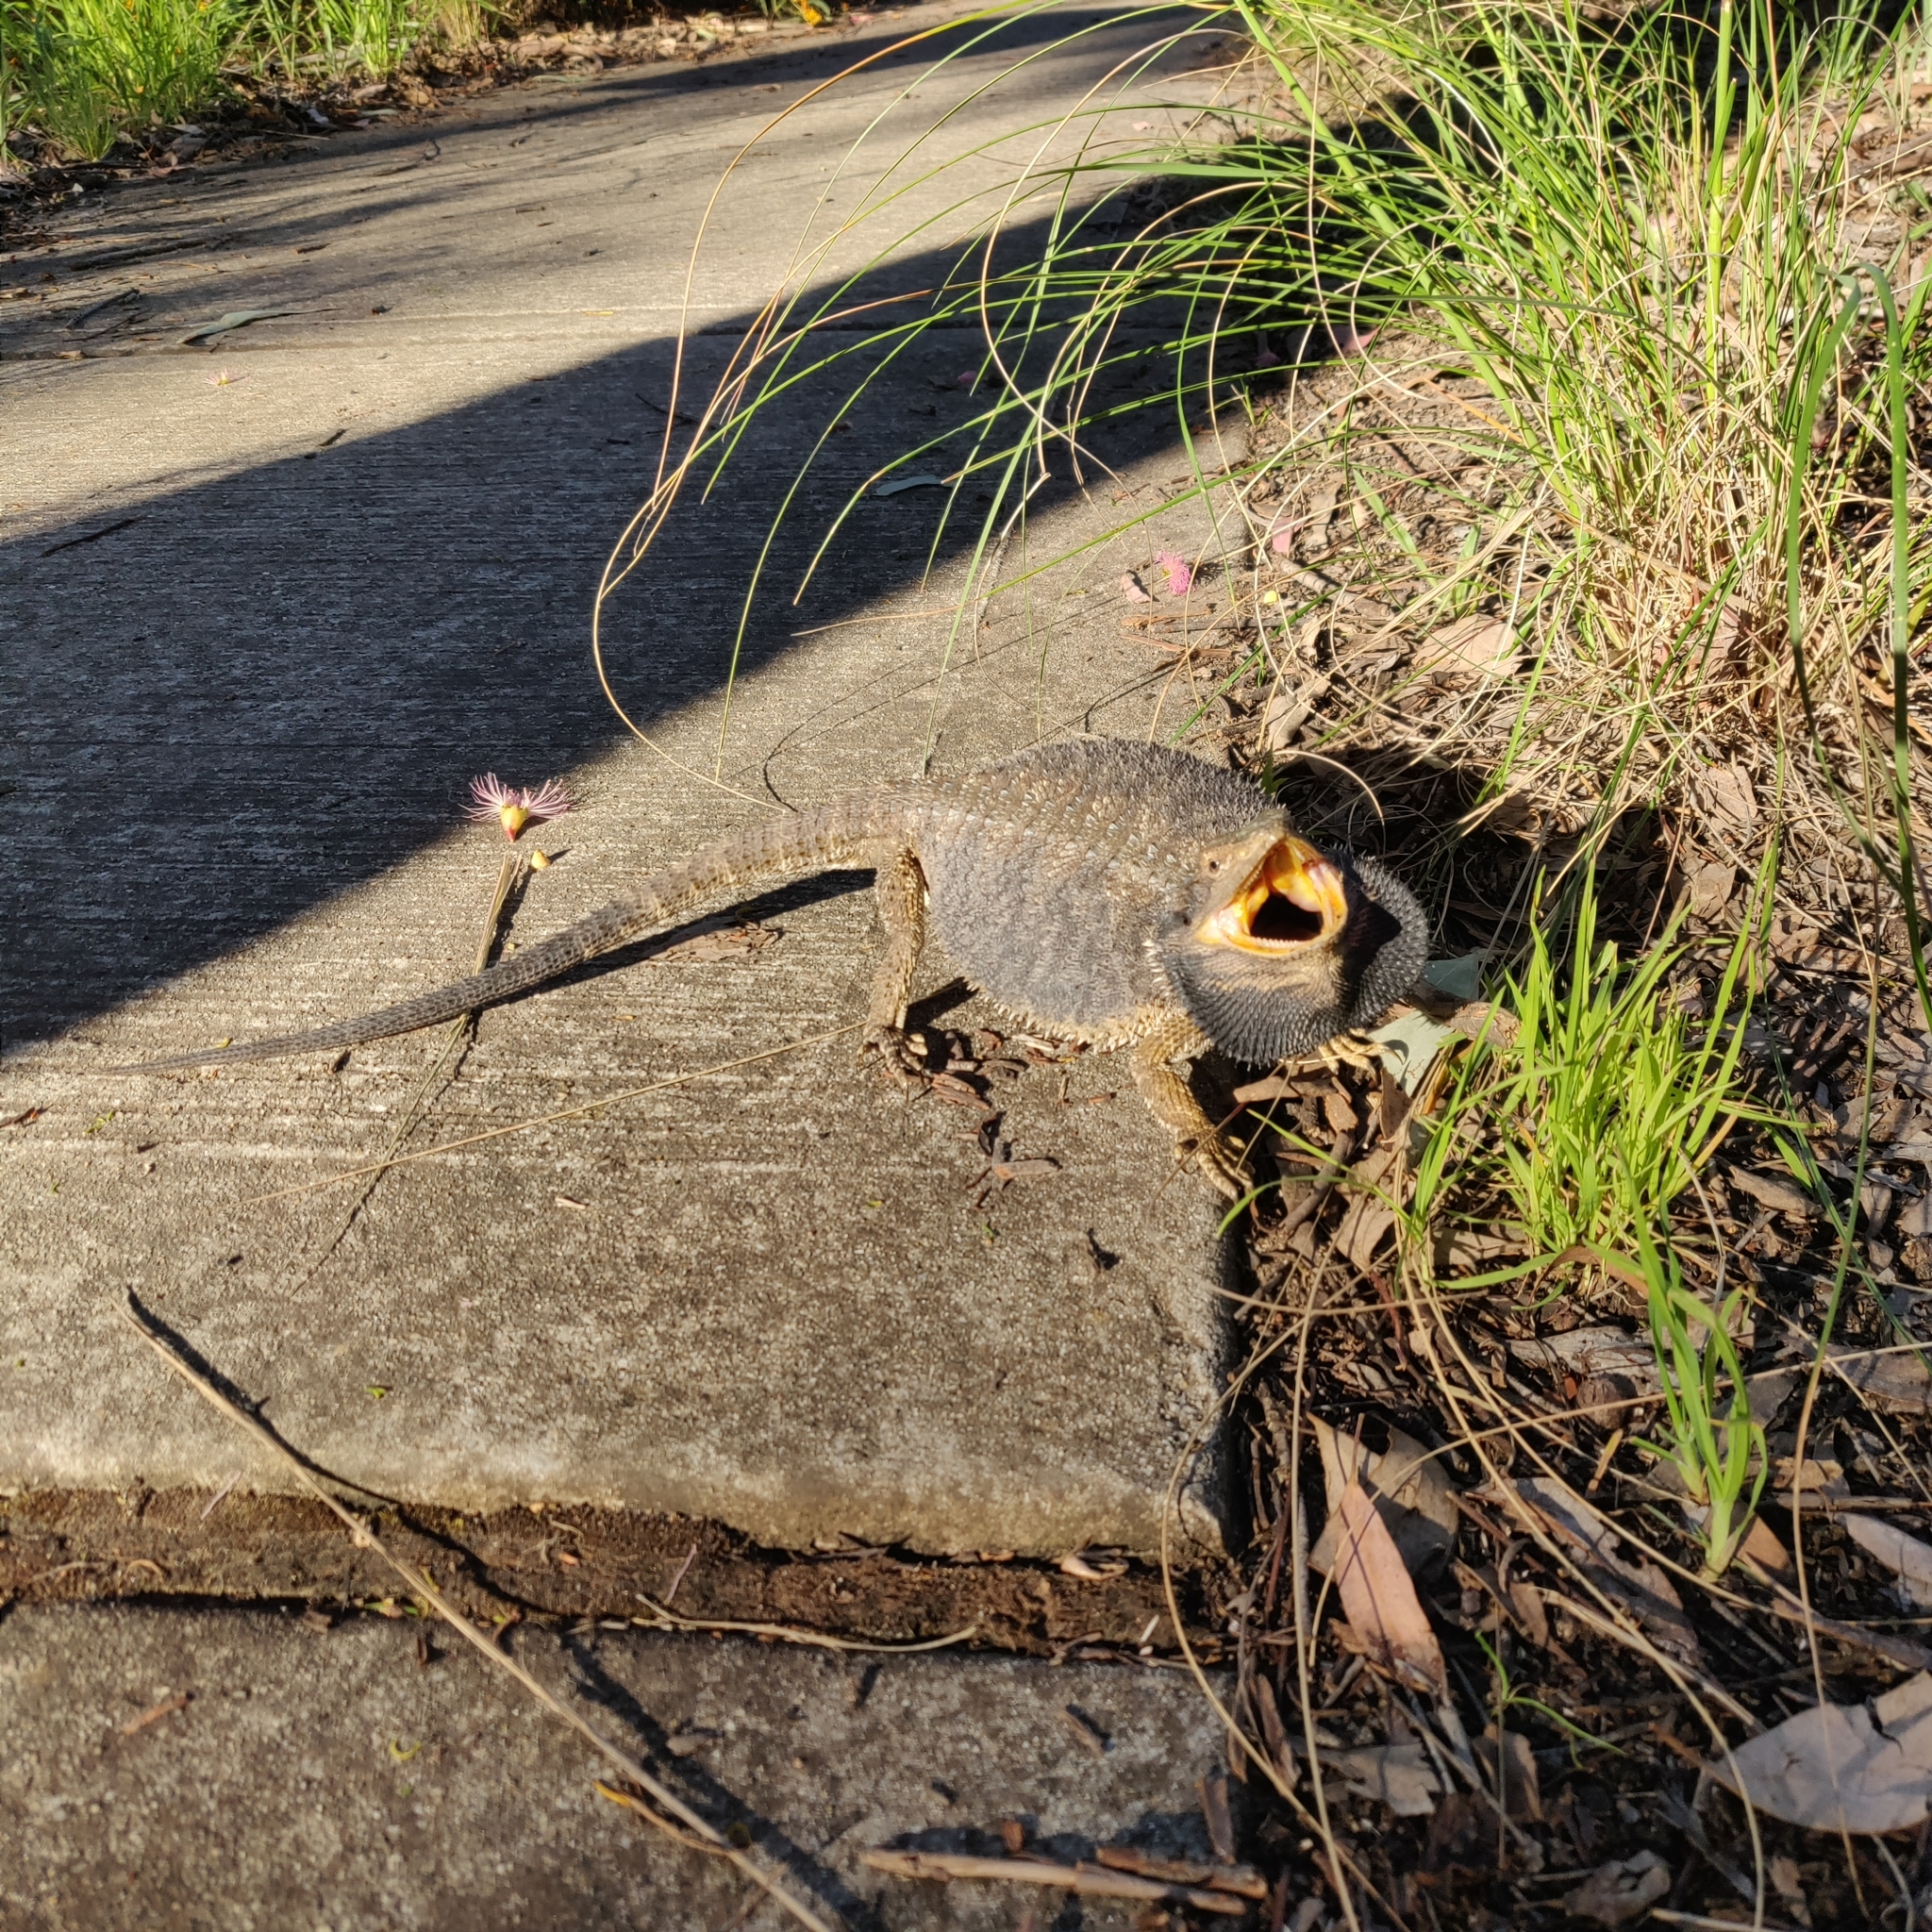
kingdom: Animalia
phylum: Chordata
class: Squamata
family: Agamidae
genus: Pogona
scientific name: Pogona barbata
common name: Bearded dragon
